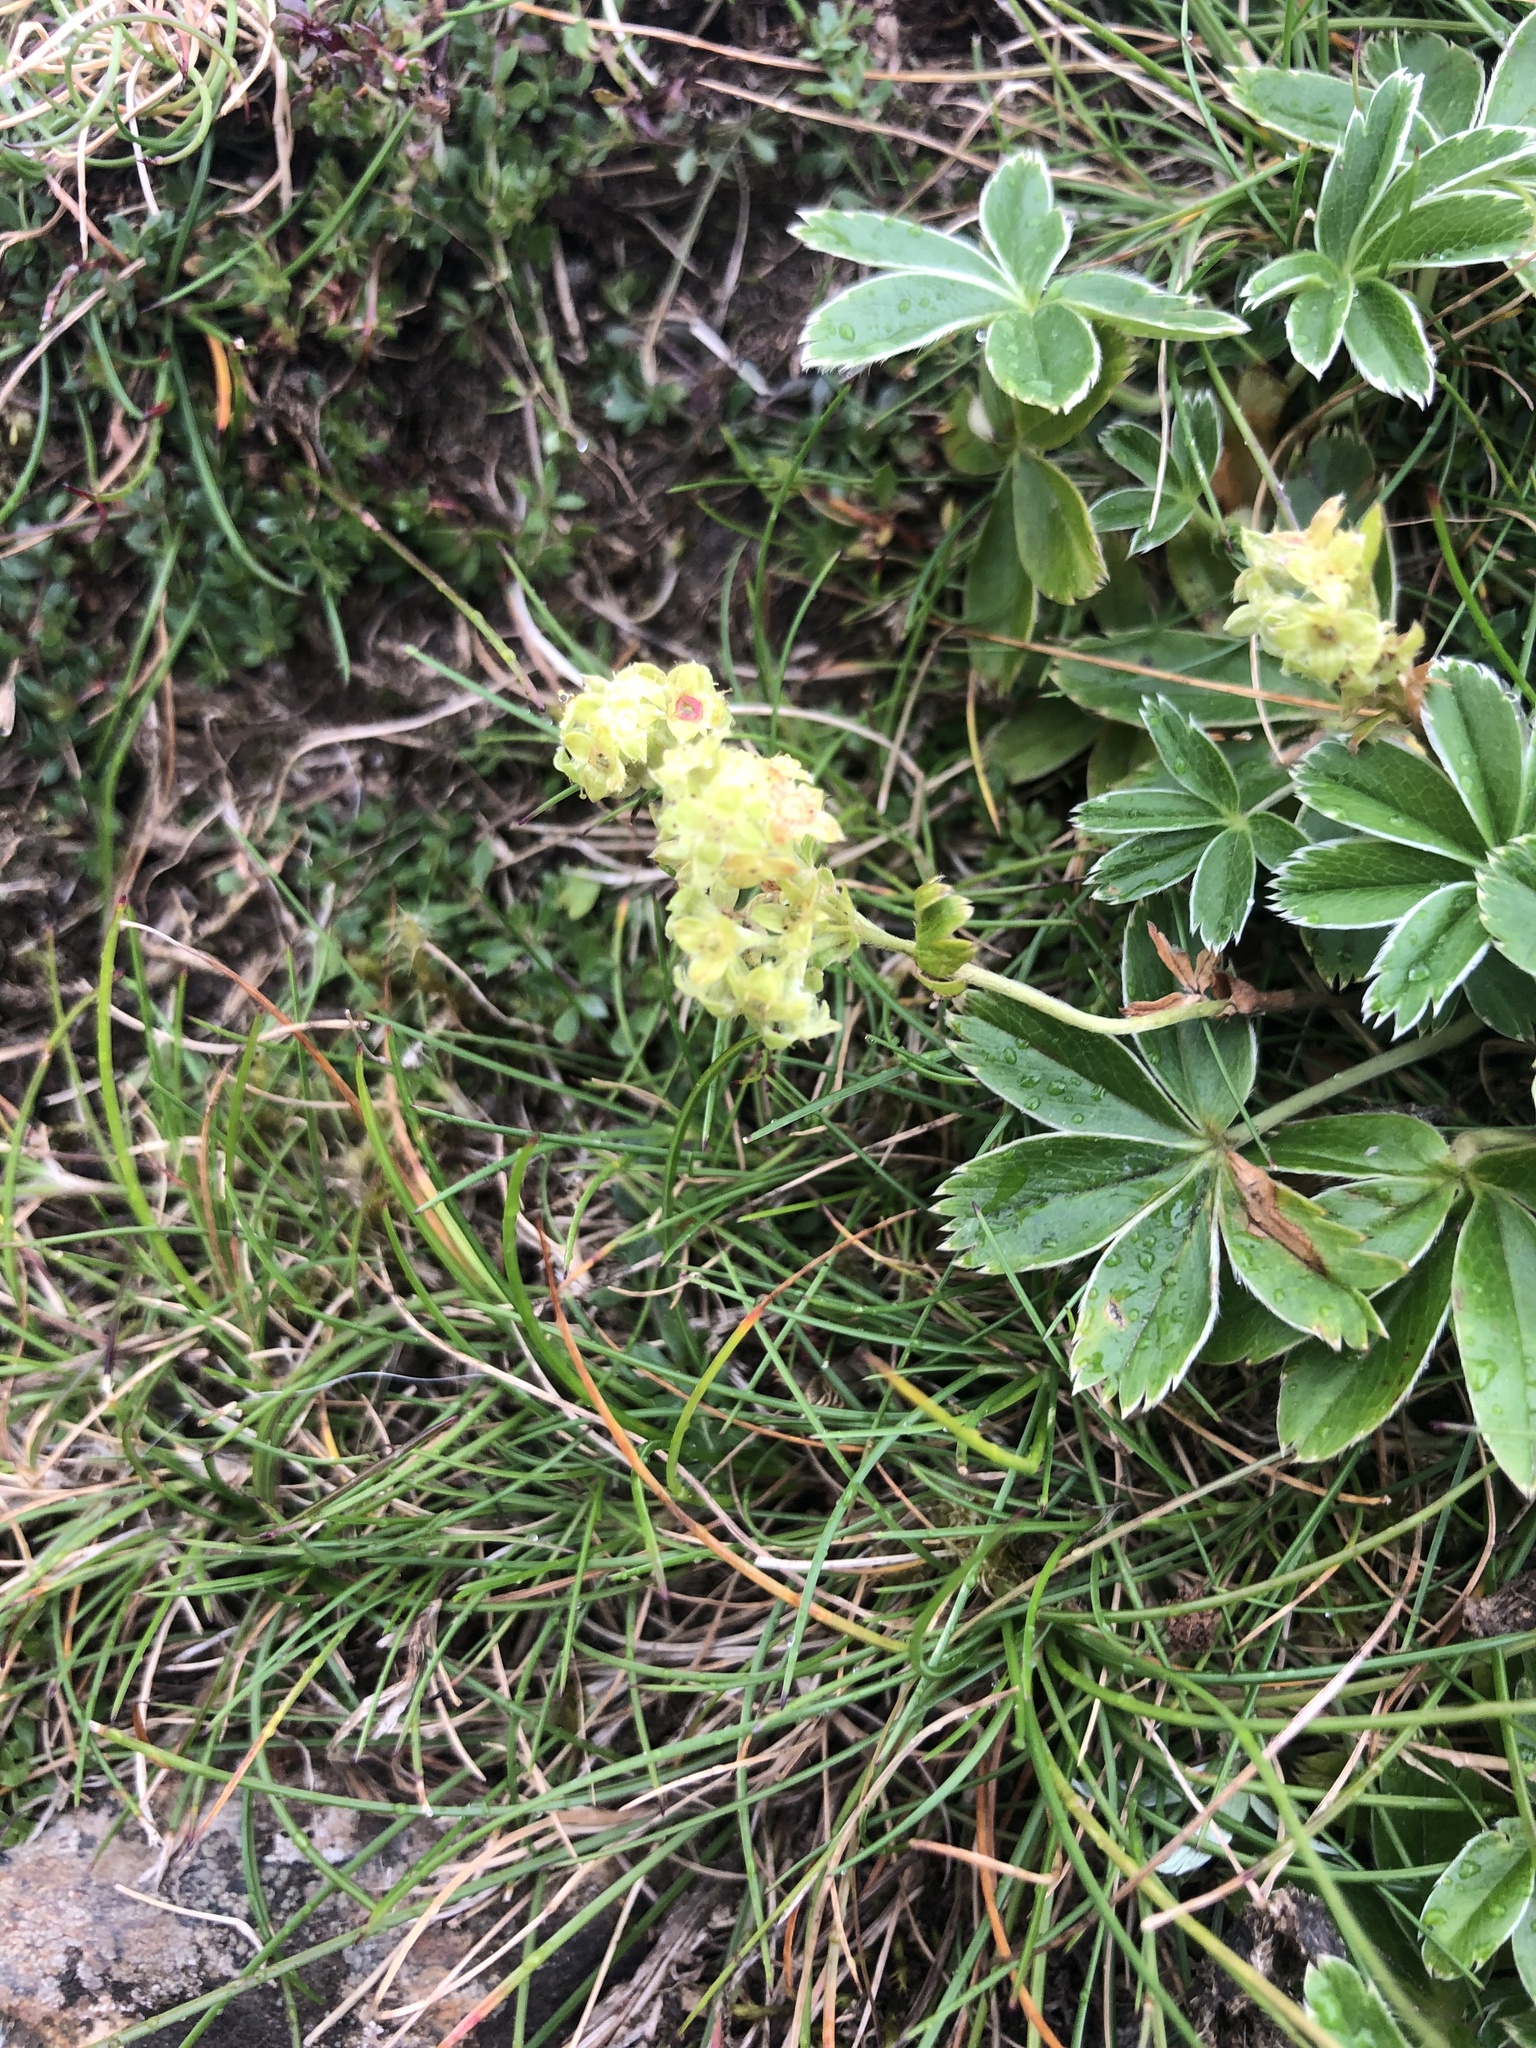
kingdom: Plantae
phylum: Tracheophyta
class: Magnoliopsida
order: Rosales
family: Rosaceae
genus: Alchemilla
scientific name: Alchemilla alpina
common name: Alpine lady's-mantle
